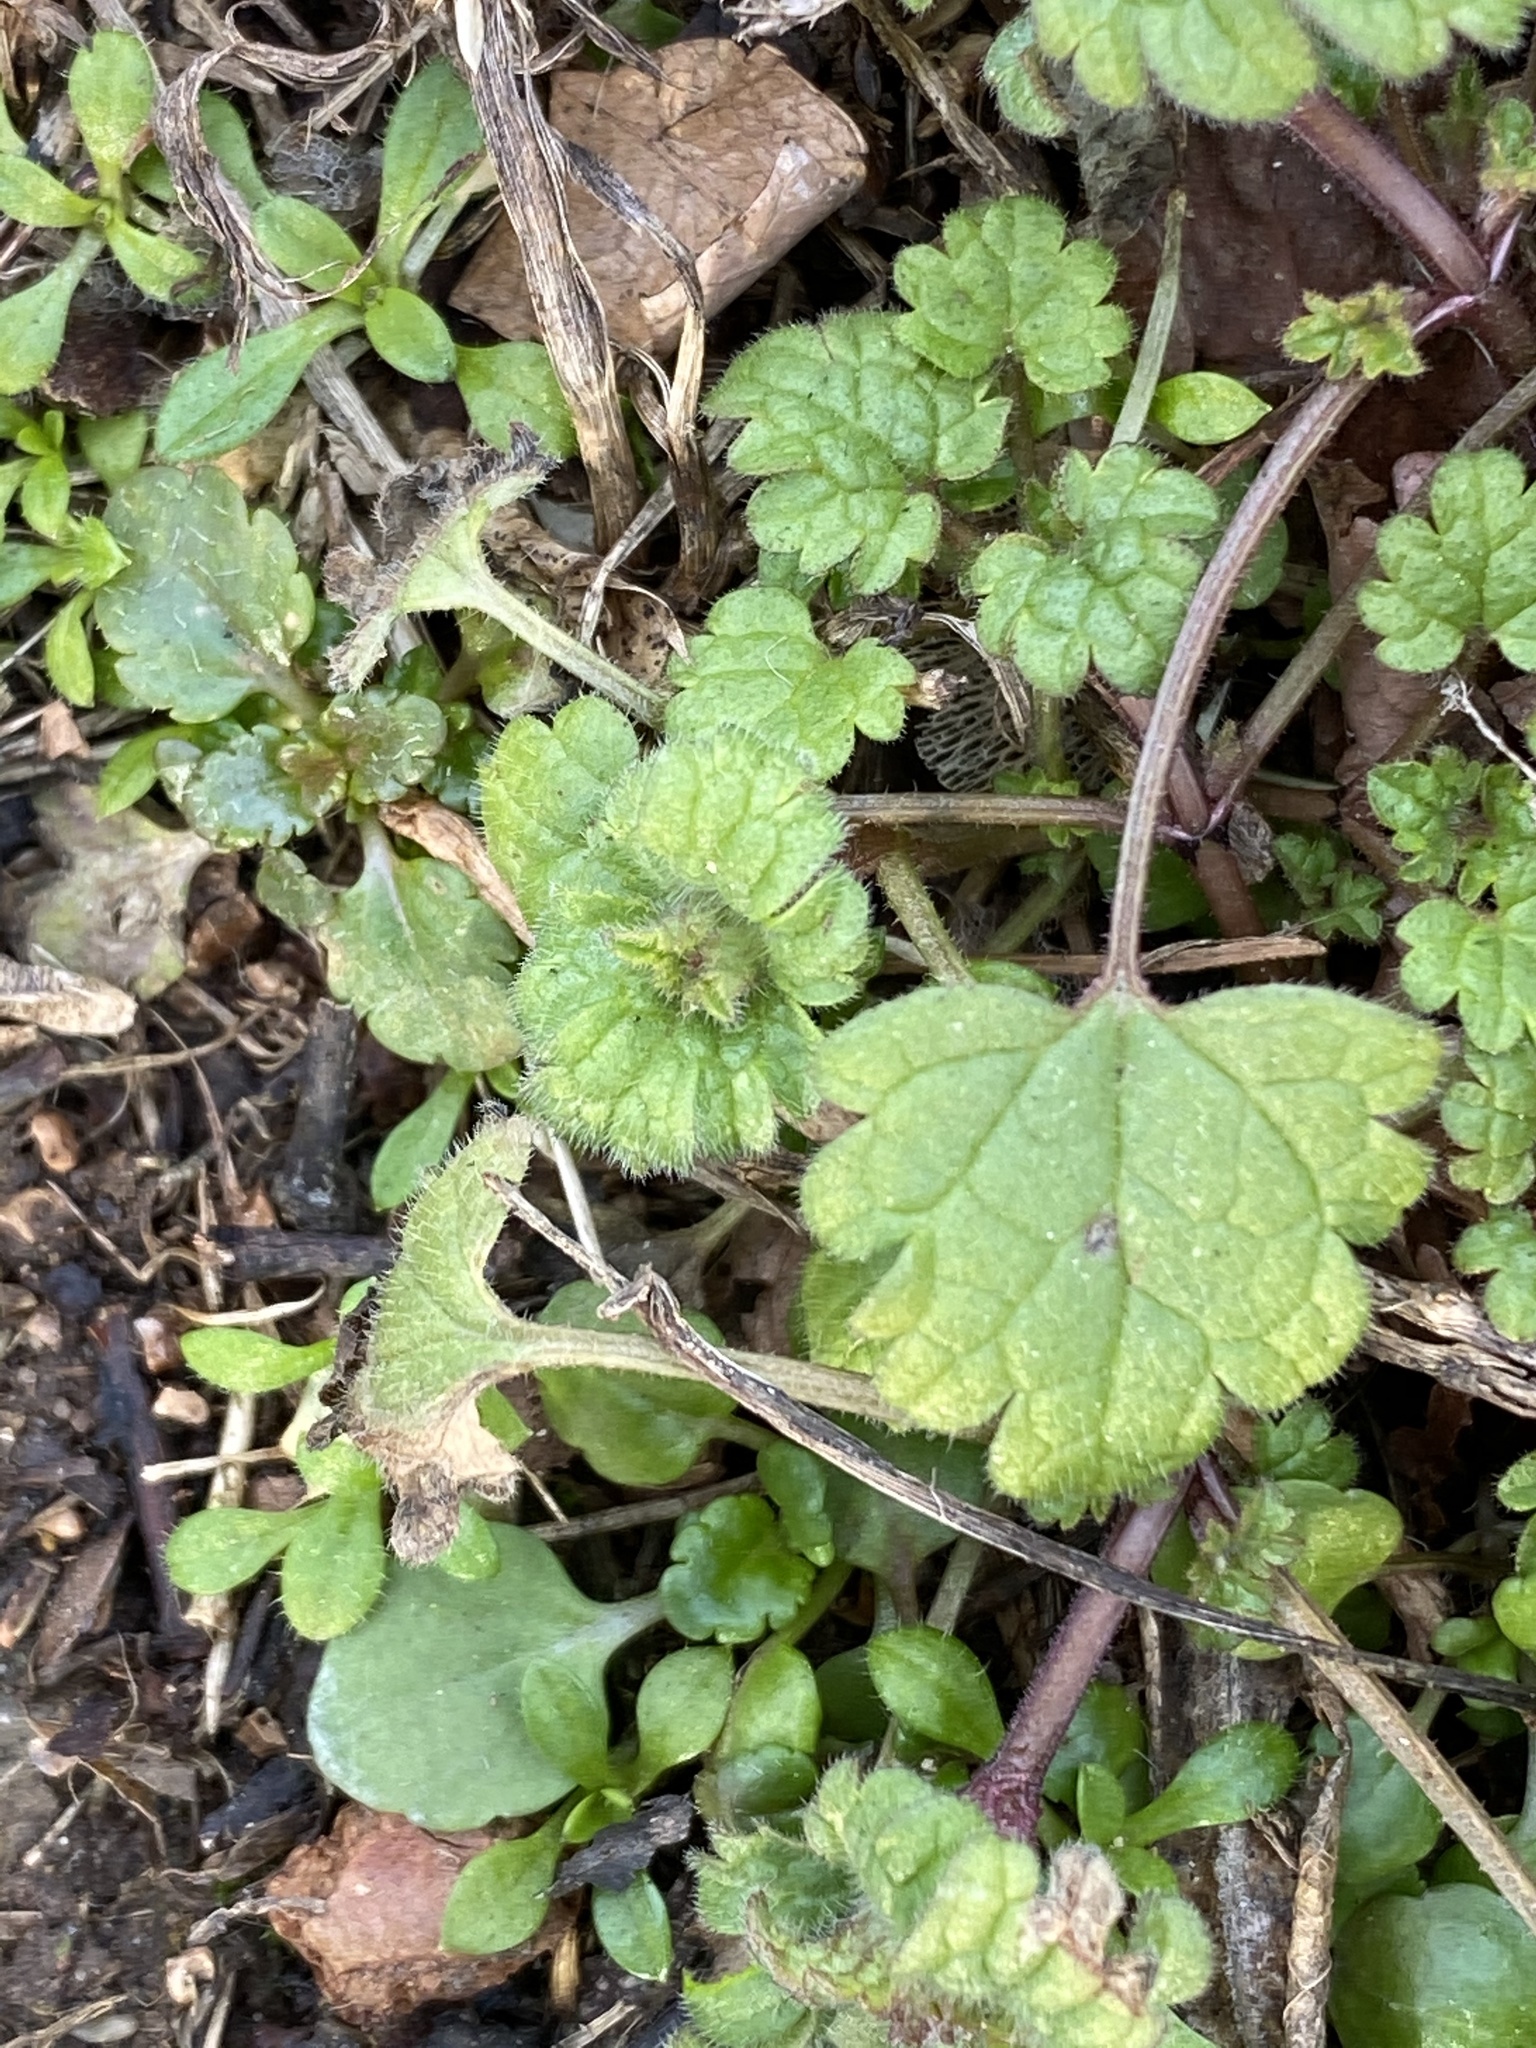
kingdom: Plantae
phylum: Tracheophyta
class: Magnoliopsida
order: Lamiales
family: Lamiaceae
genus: Lamium
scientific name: Lamium amplexicaule
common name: Henbit dead-nettle
